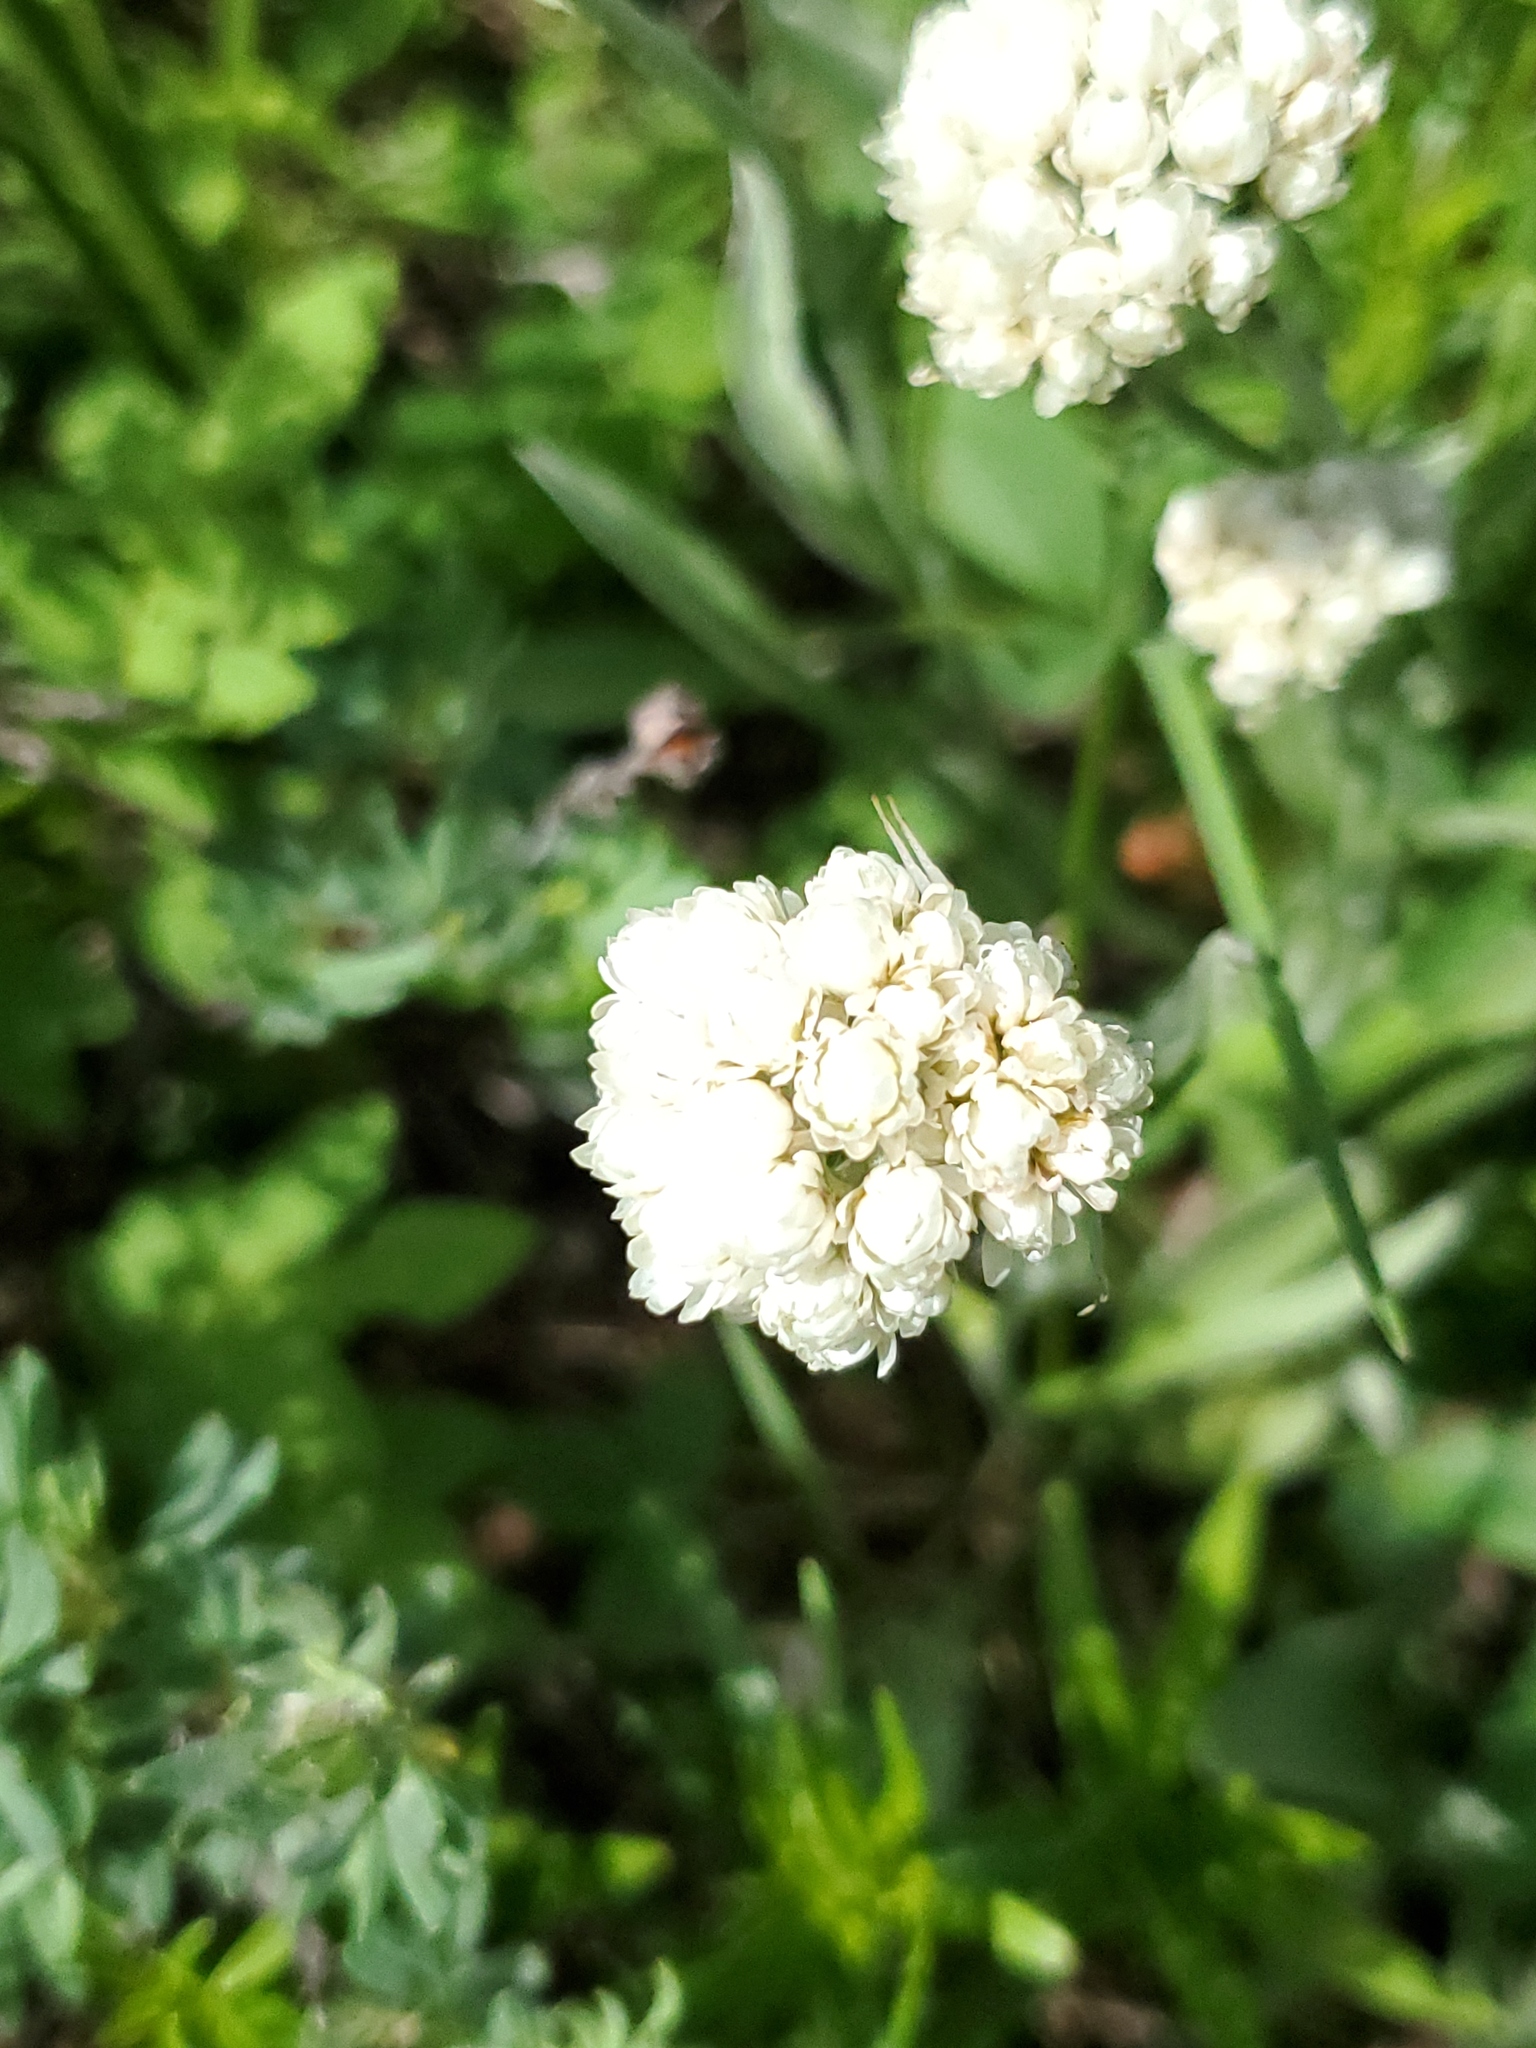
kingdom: Plantae
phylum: Tracheophyta
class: Magnoliopsida
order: Asterales
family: Asteraceae
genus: Antennaria
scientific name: Antennaria anaphaloides
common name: Tall pussytoes
